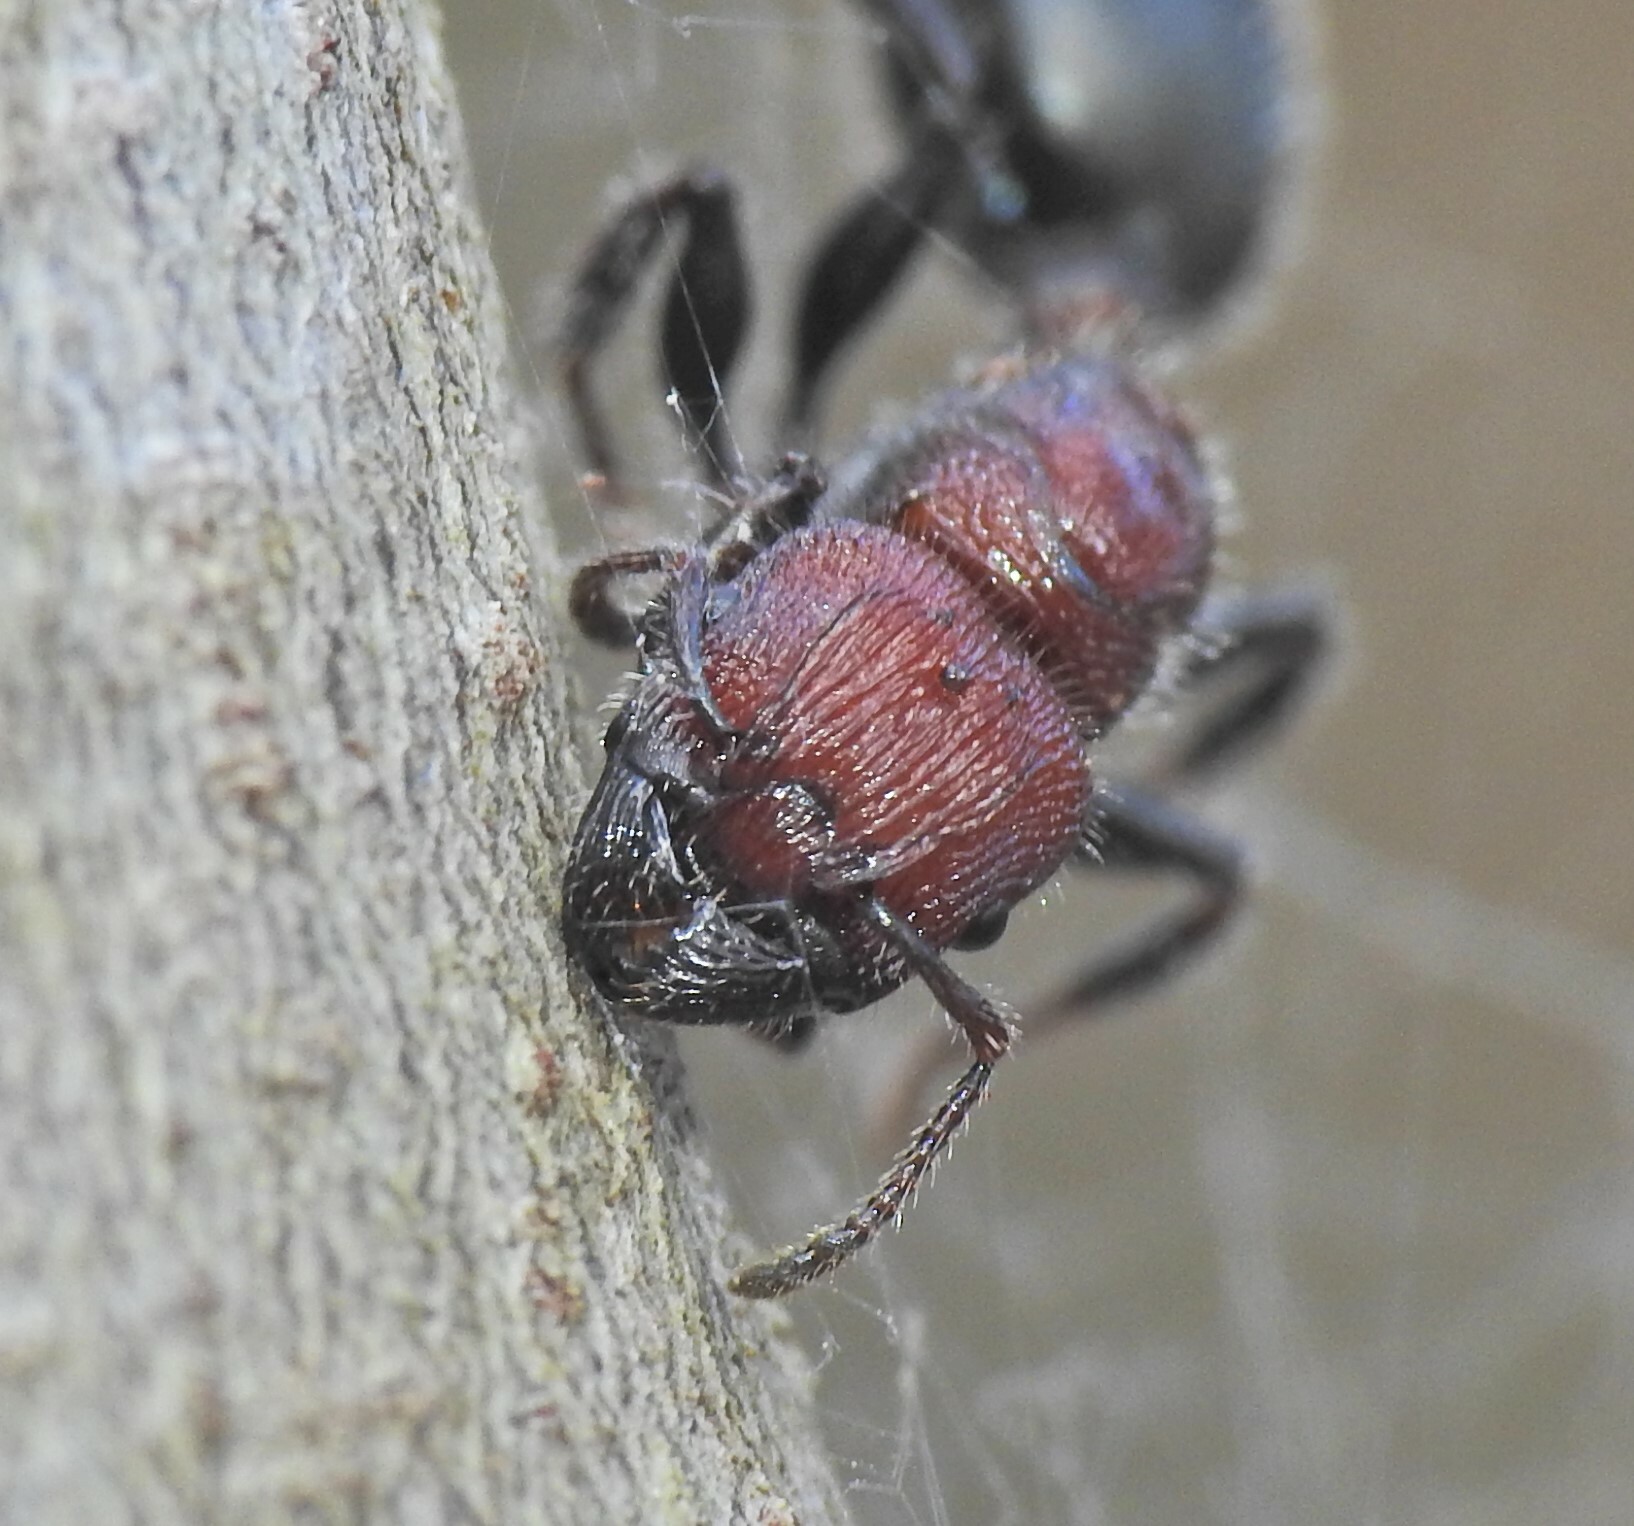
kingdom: Animalia
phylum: Arthropoda
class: Insecta
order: Hymenoptera
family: Formicidae
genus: Podomyrma
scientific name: Podomyrma micans
